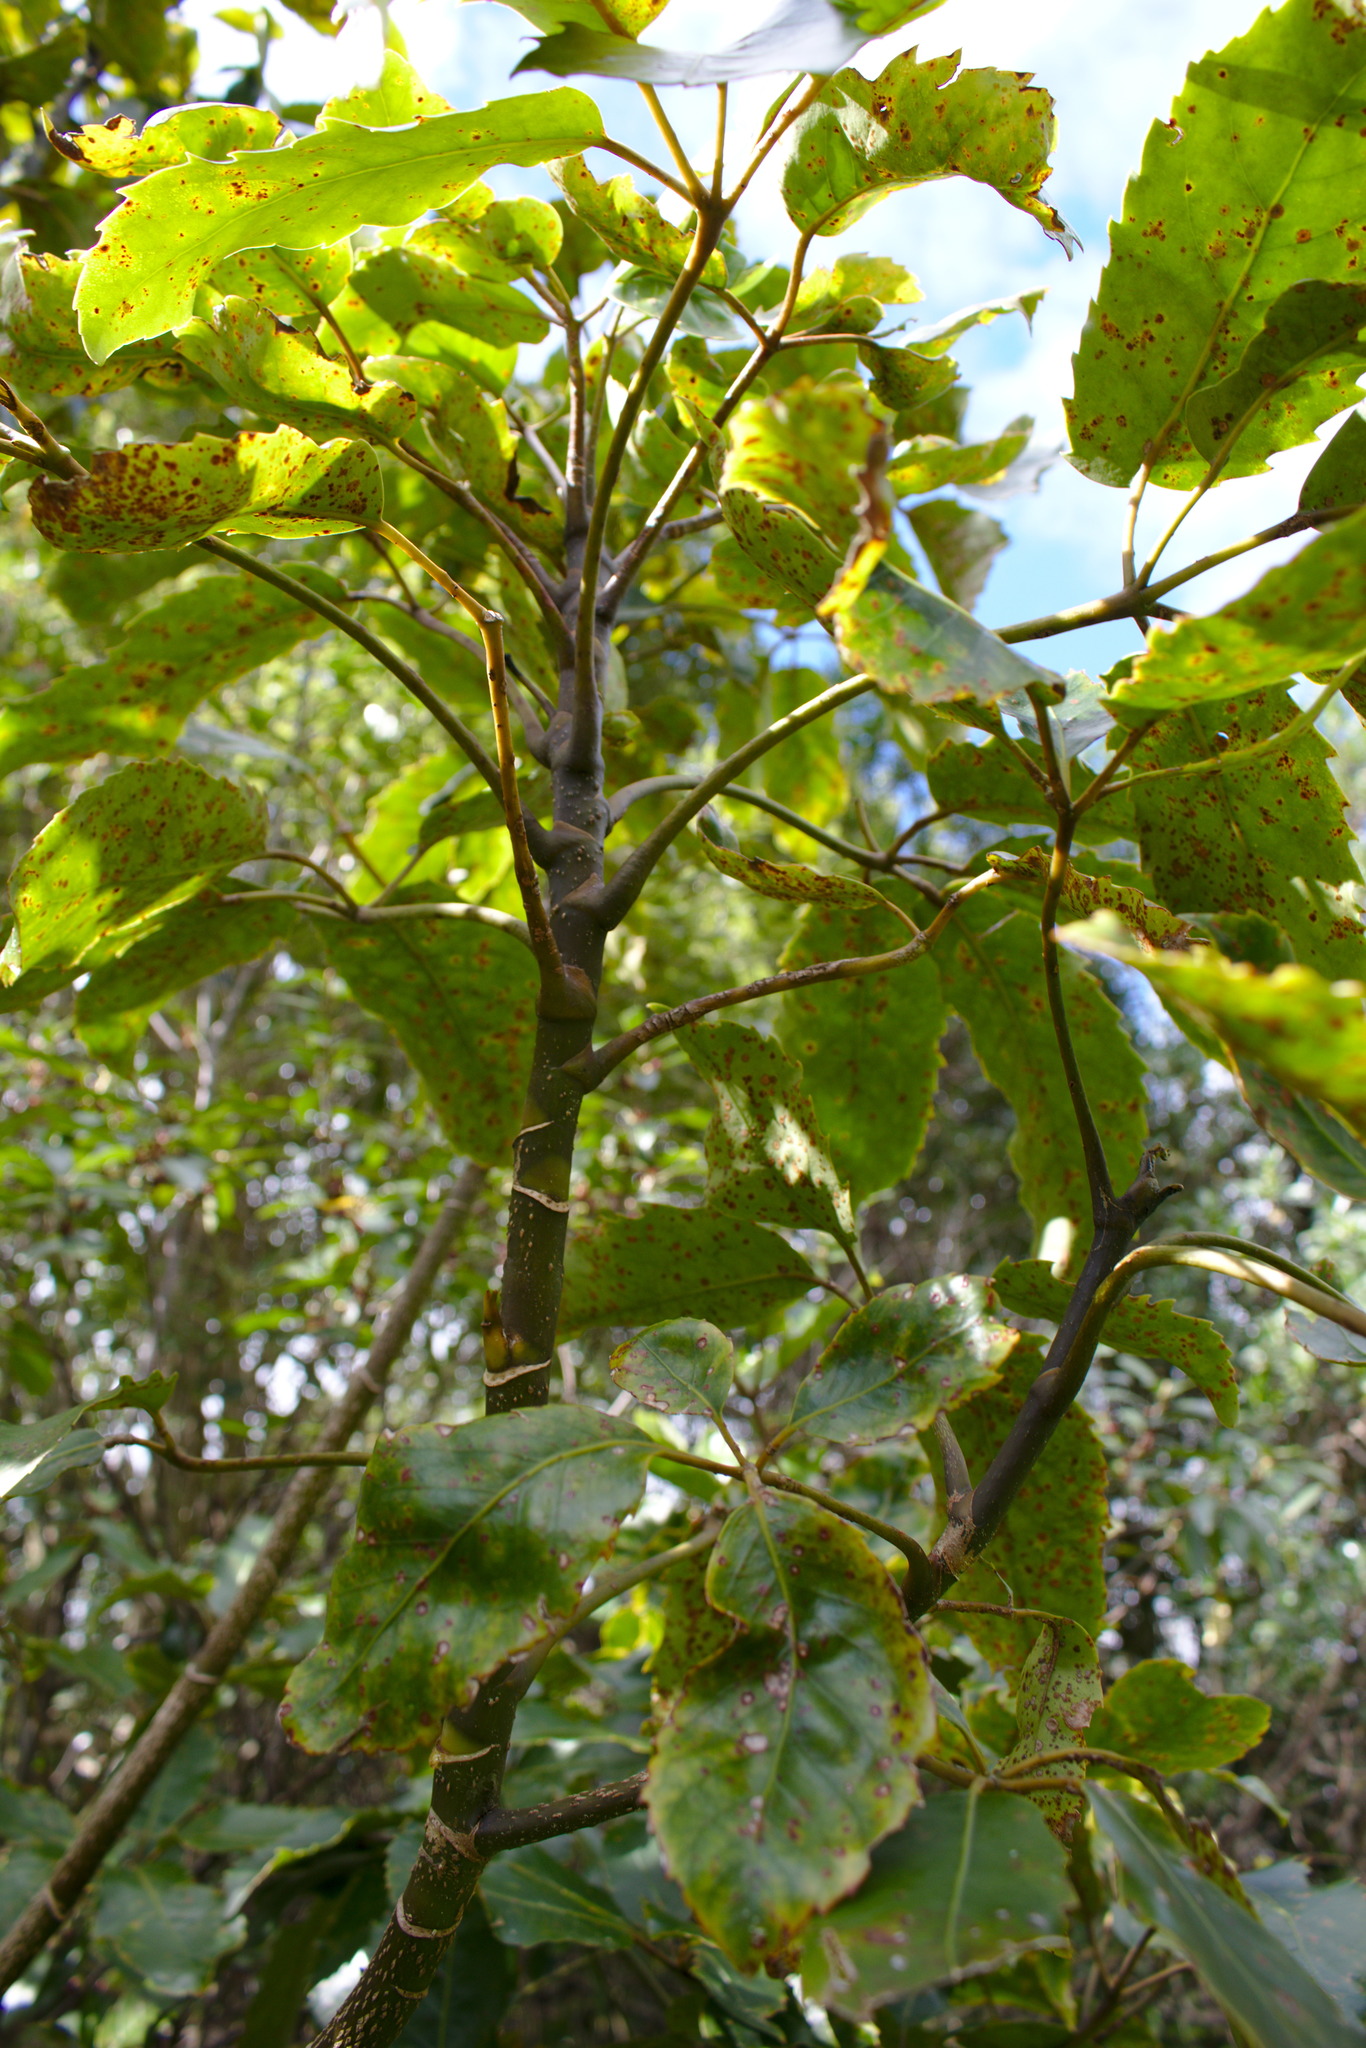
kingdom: Plantae
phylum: Tracheophyta
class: Magnoliopsida
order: Apiales
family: Araliaceae
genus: Neopanax
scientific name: Neopanax arboreus
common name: Five-fingers
